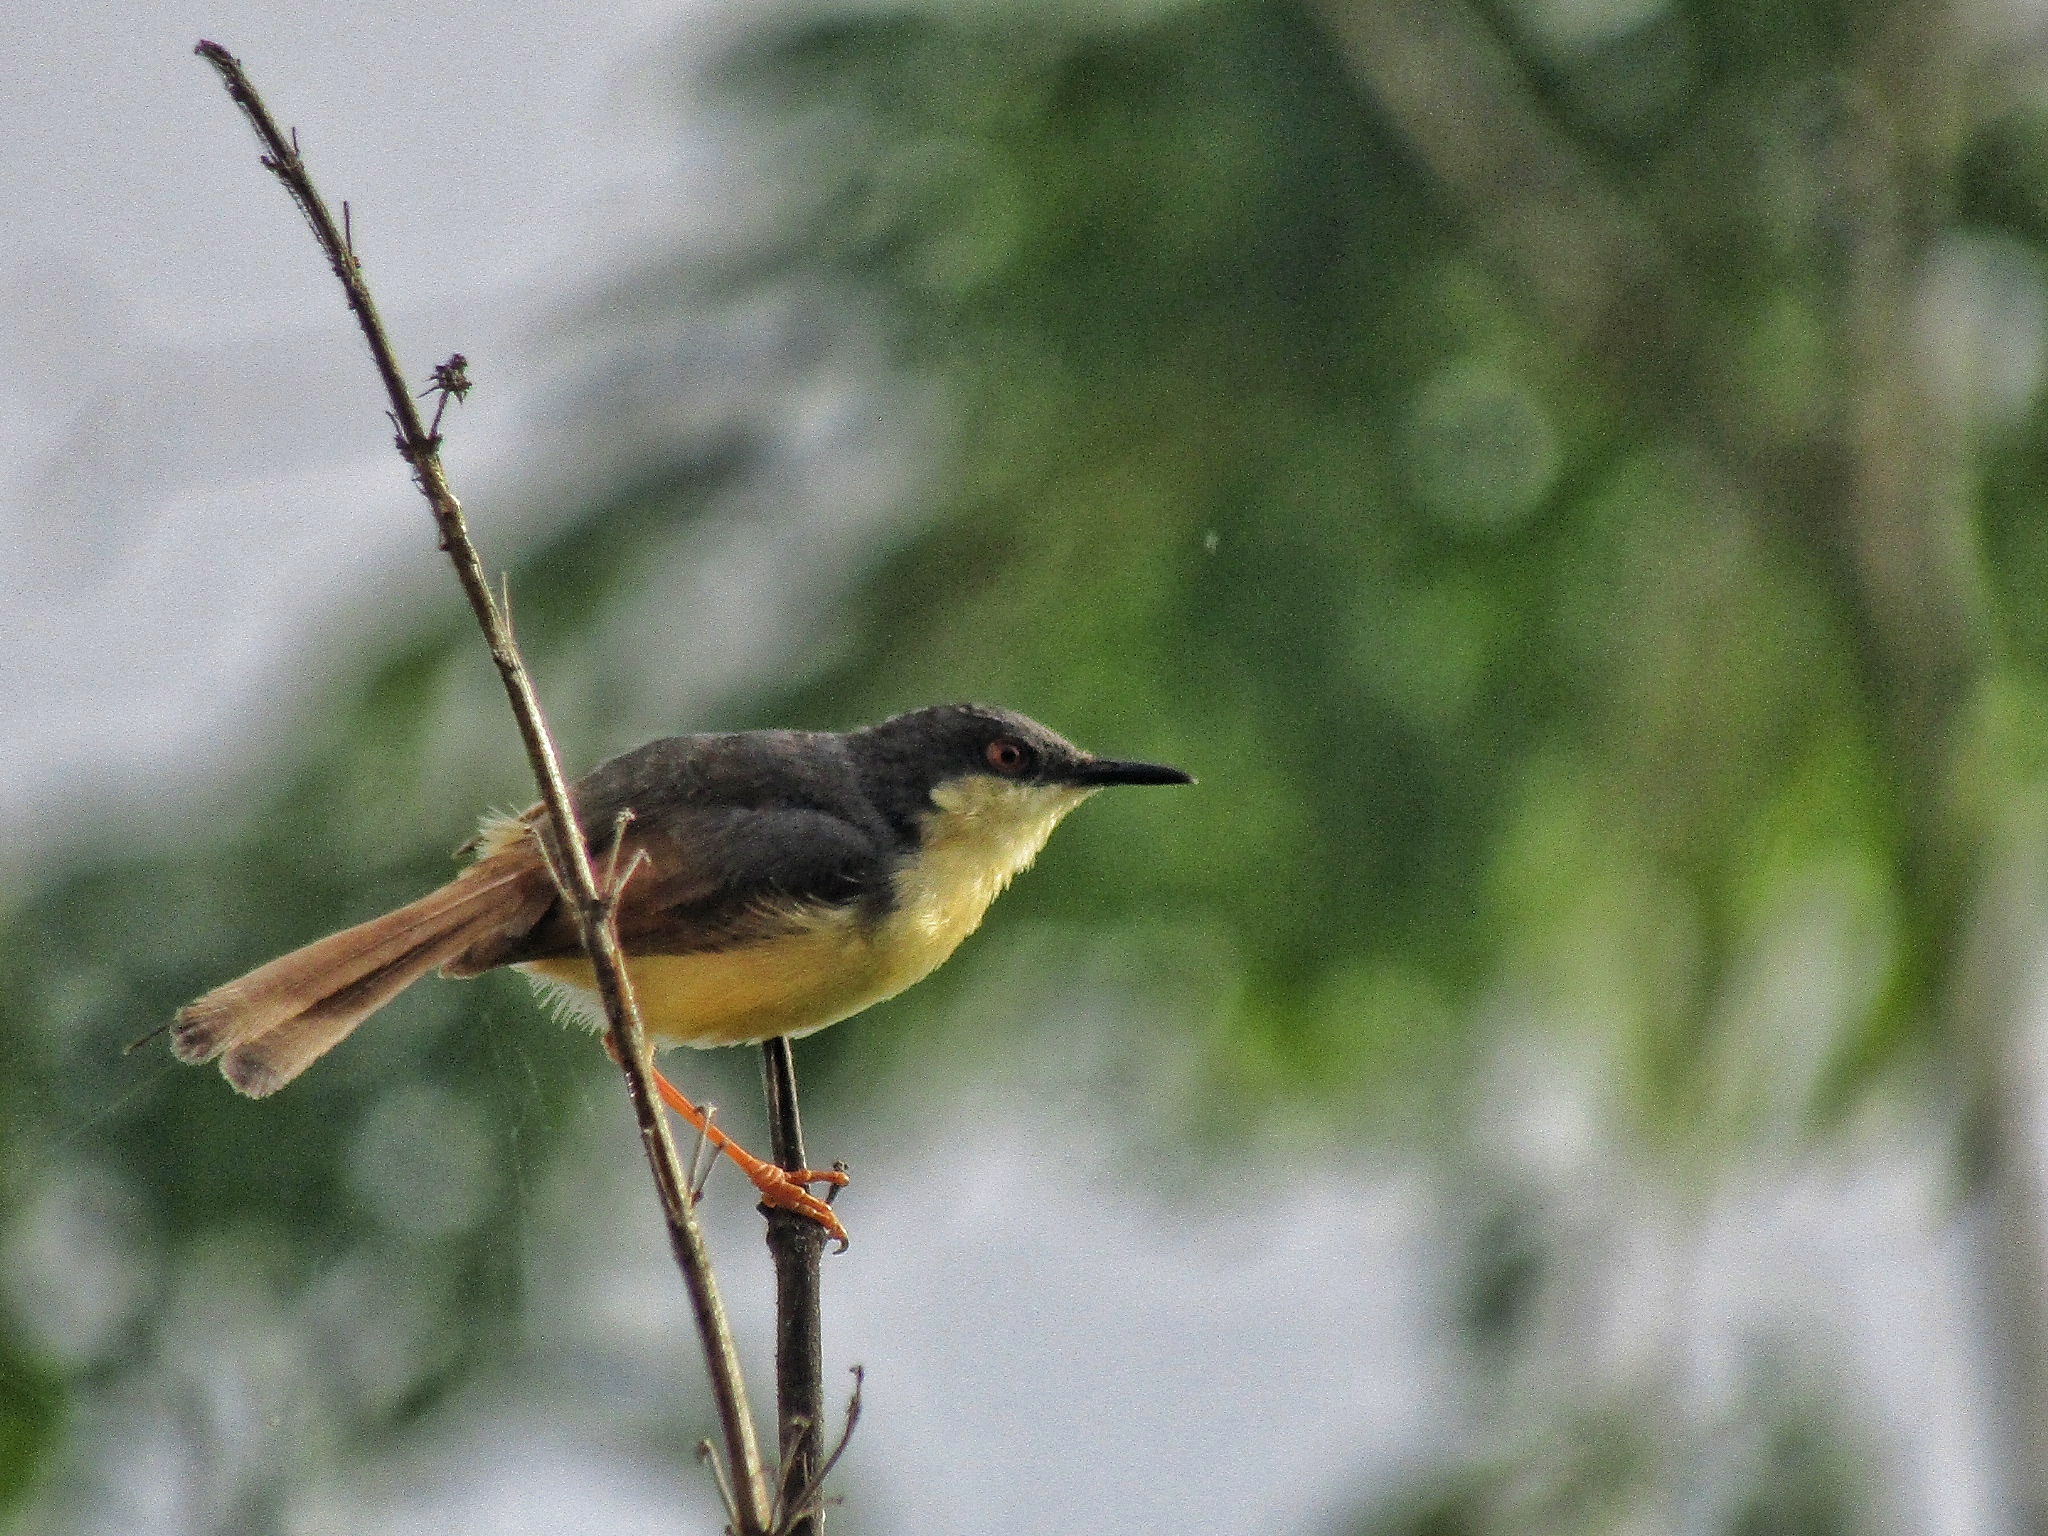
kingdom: Animalia
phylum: Chordata
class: Aves
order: Passeriformes
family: Cisticolidae
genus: Prinia
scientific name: Prinia socialis
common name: Ashy prinia
